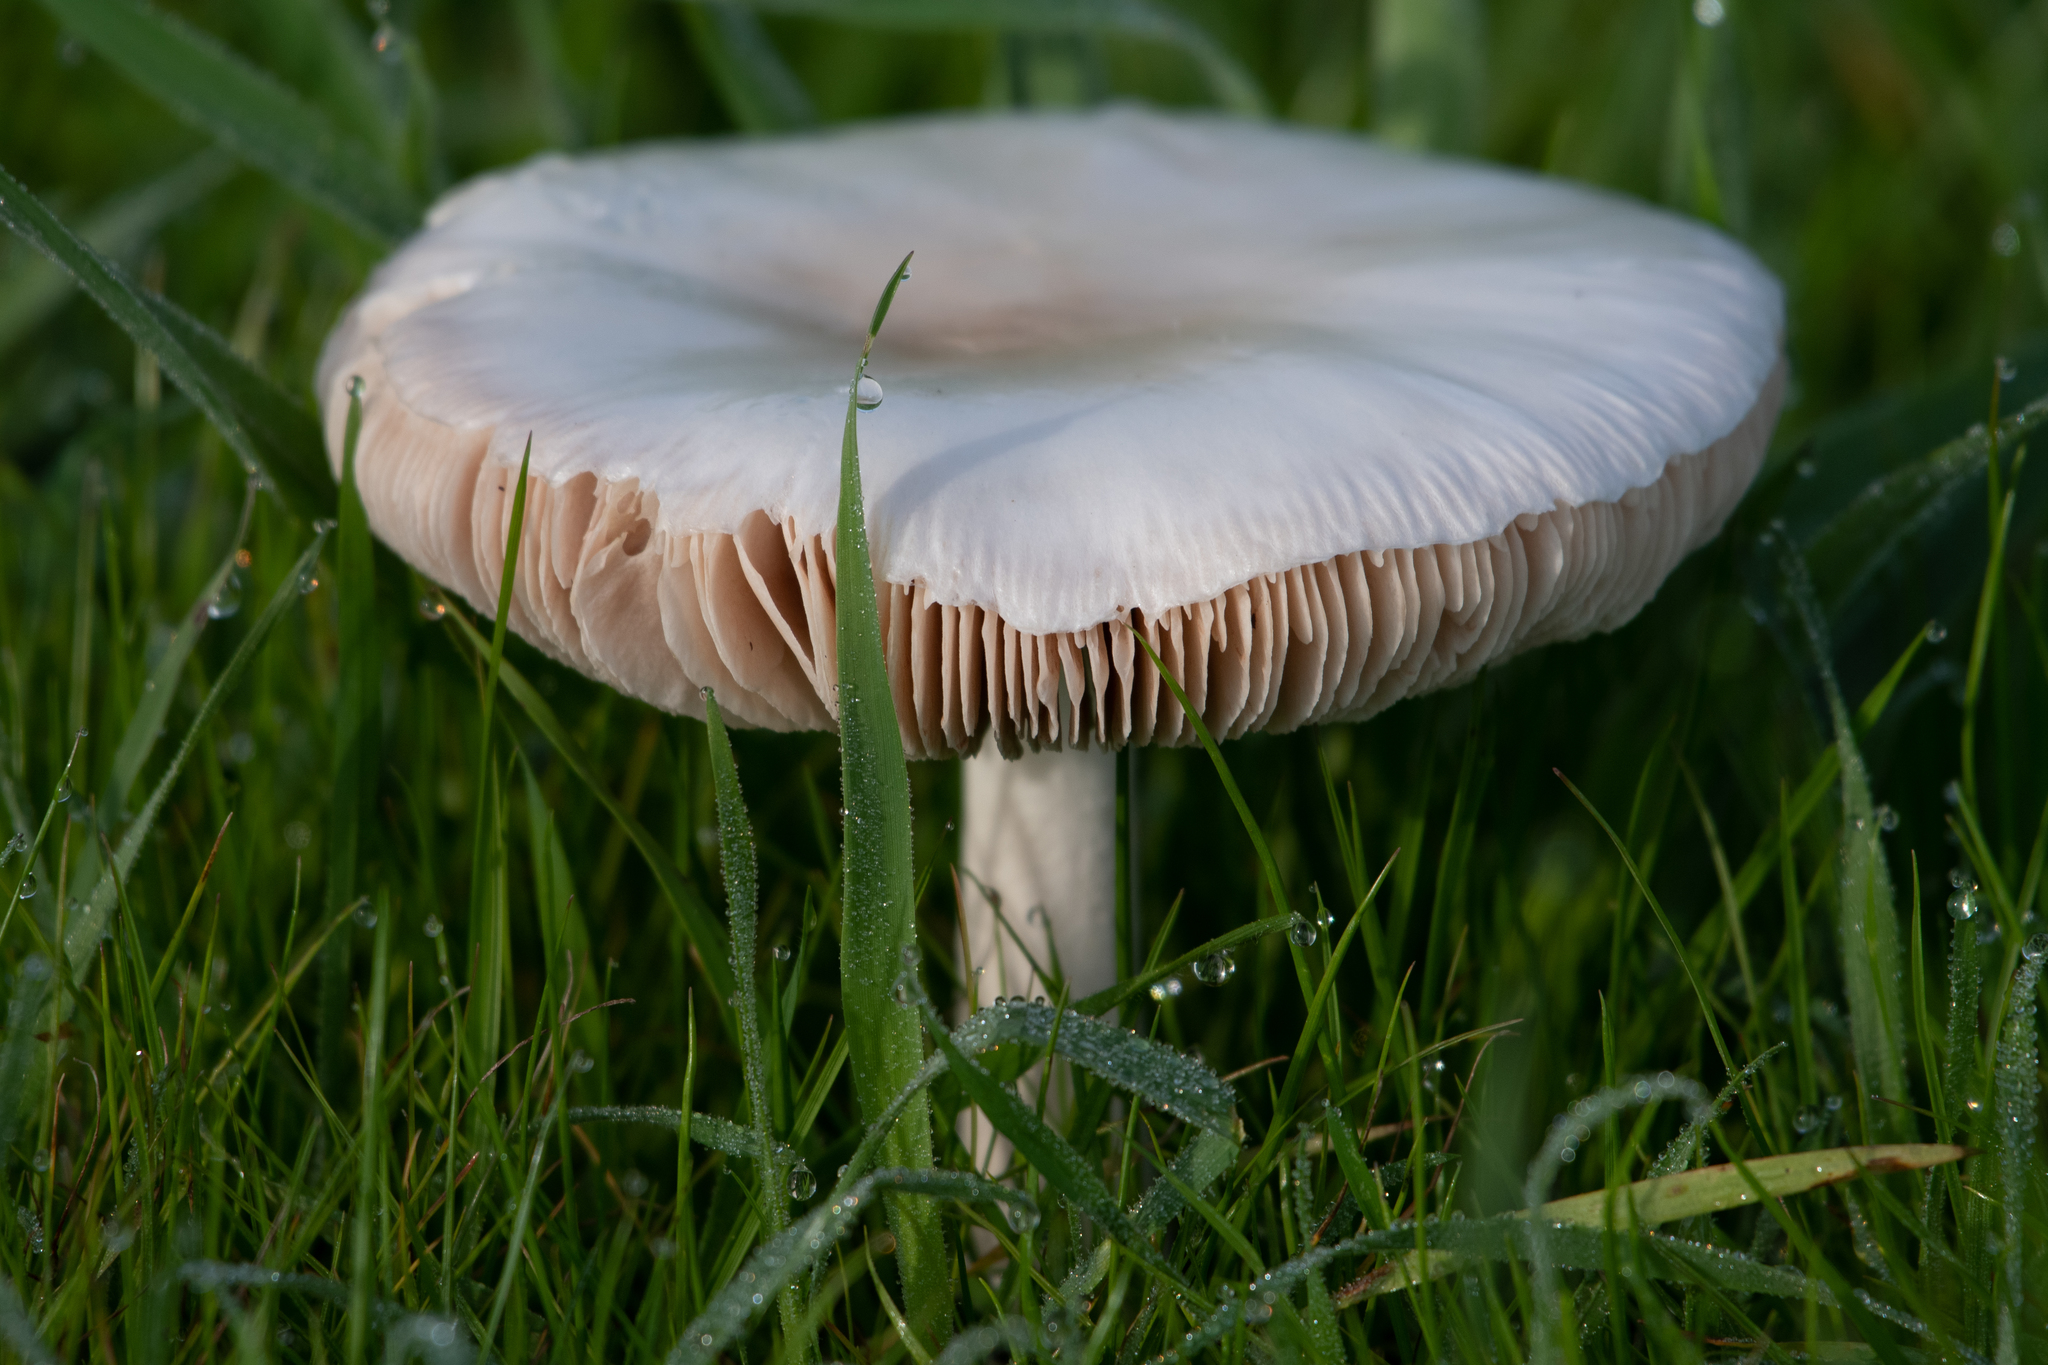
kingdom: Fungi
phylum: Basidiomycota
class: Agaricomycetes
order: Agaricales
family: Pluteaceae
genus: Volvopluteus
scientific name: Volvopluteus gloiocephalus
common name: Stubble rosegill
